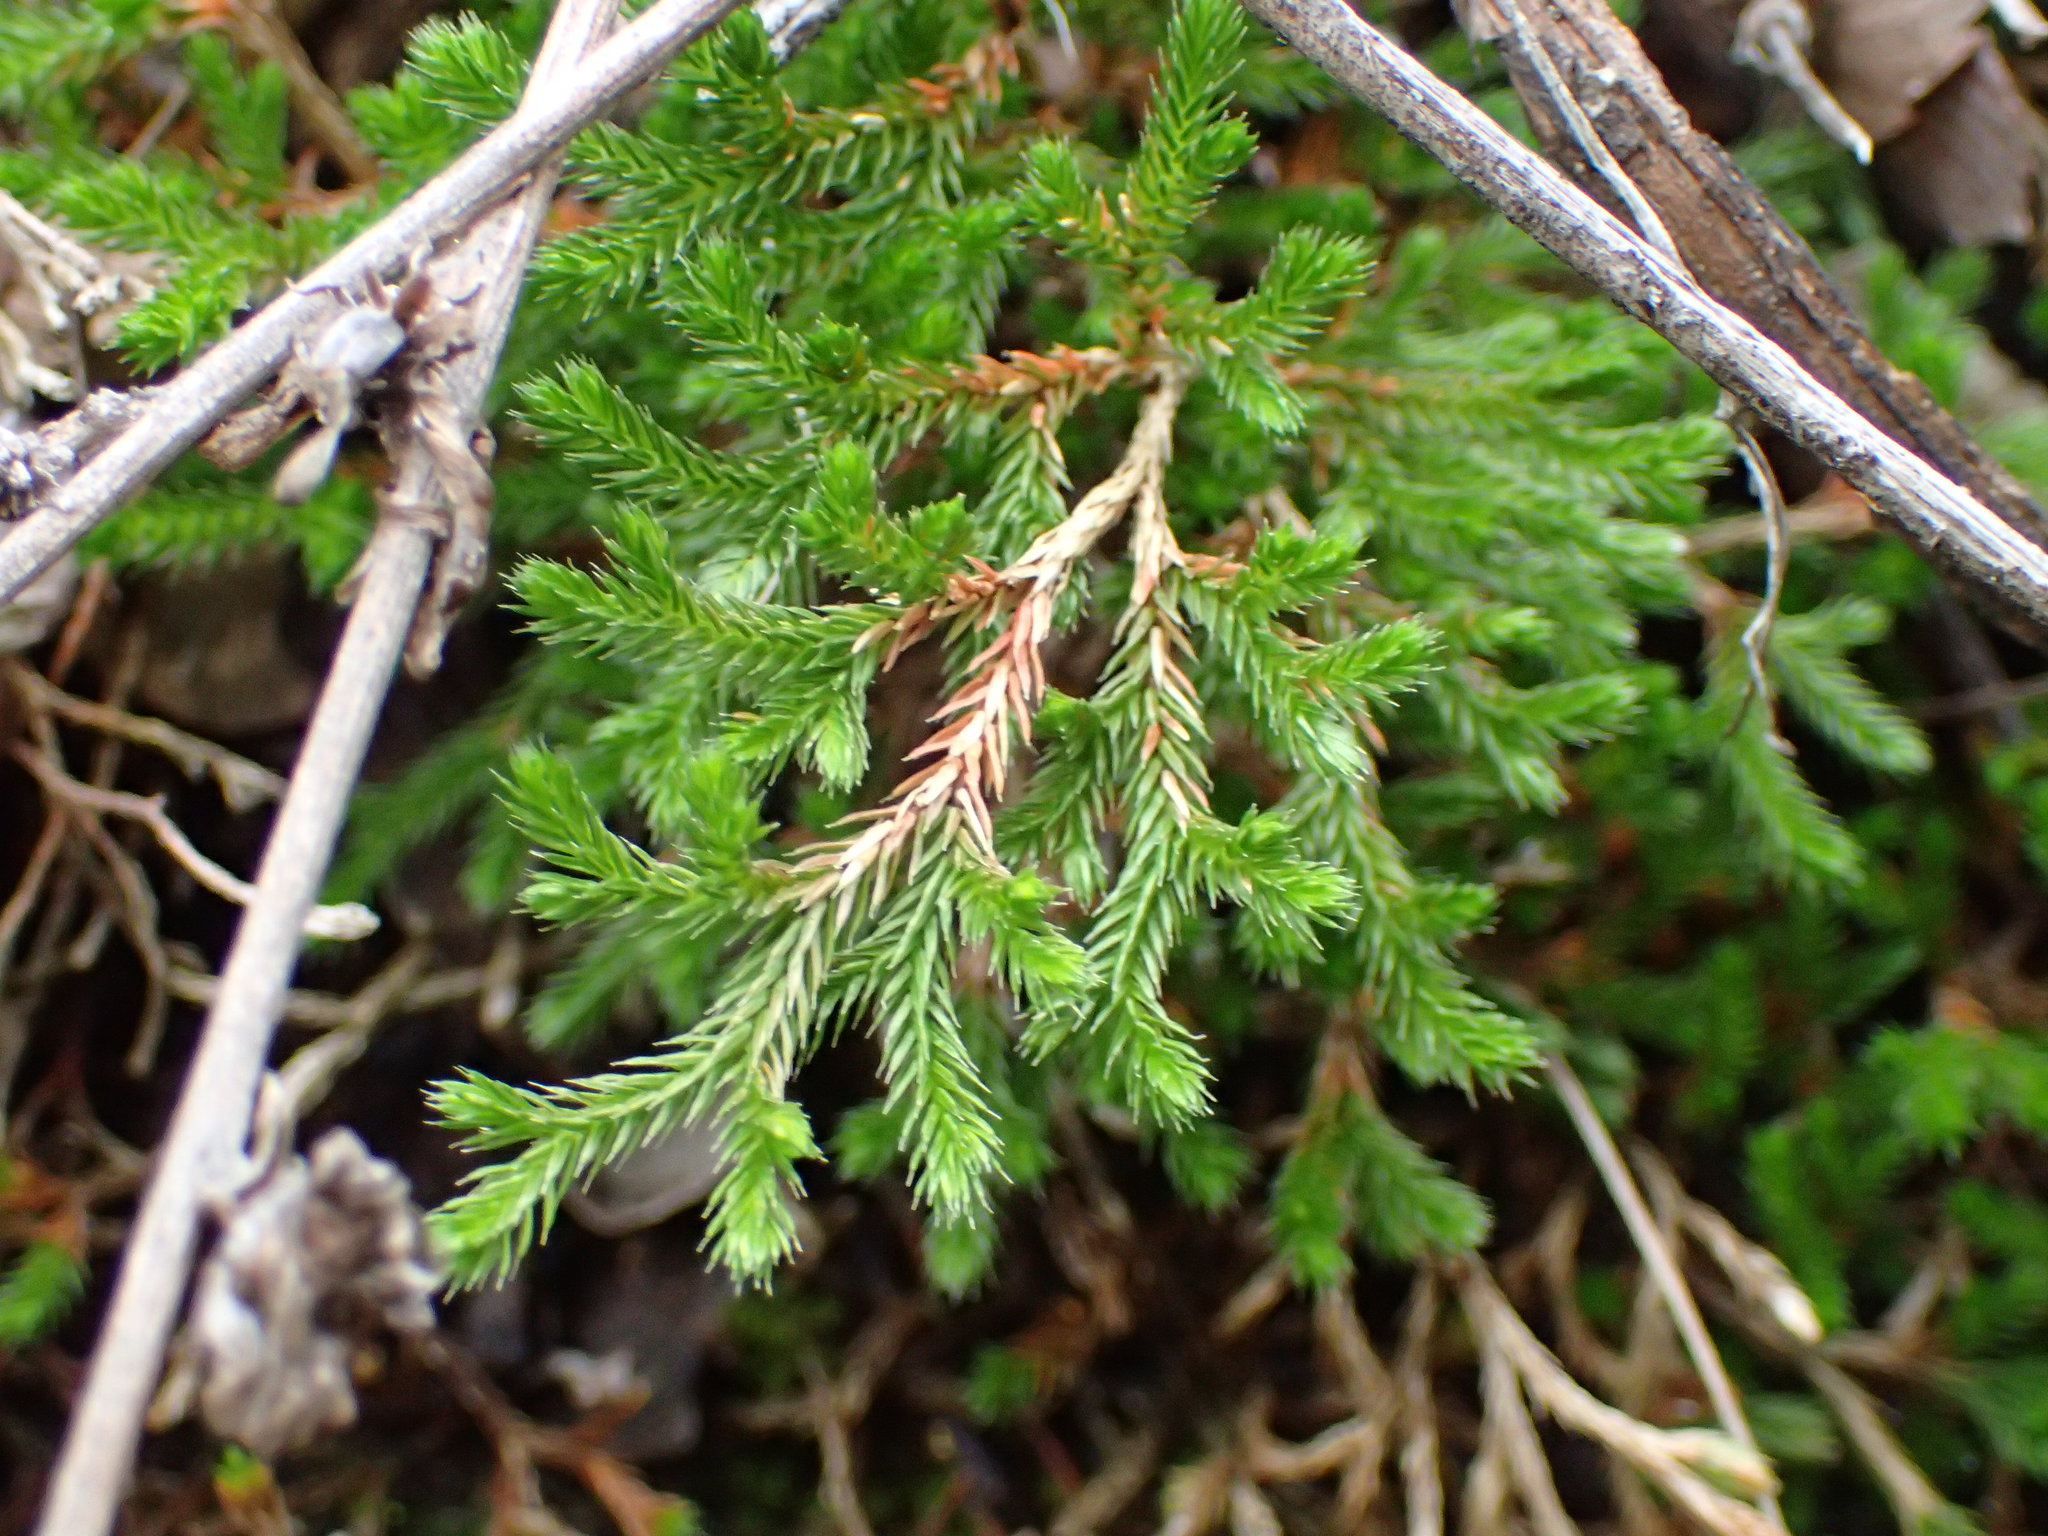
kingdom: Plantae
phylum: Tracheophyta
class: Lycopodiopsida
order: Selaginellales
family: Selaginellaceae
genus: Selaginella
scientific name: Selaginella bigelovii
